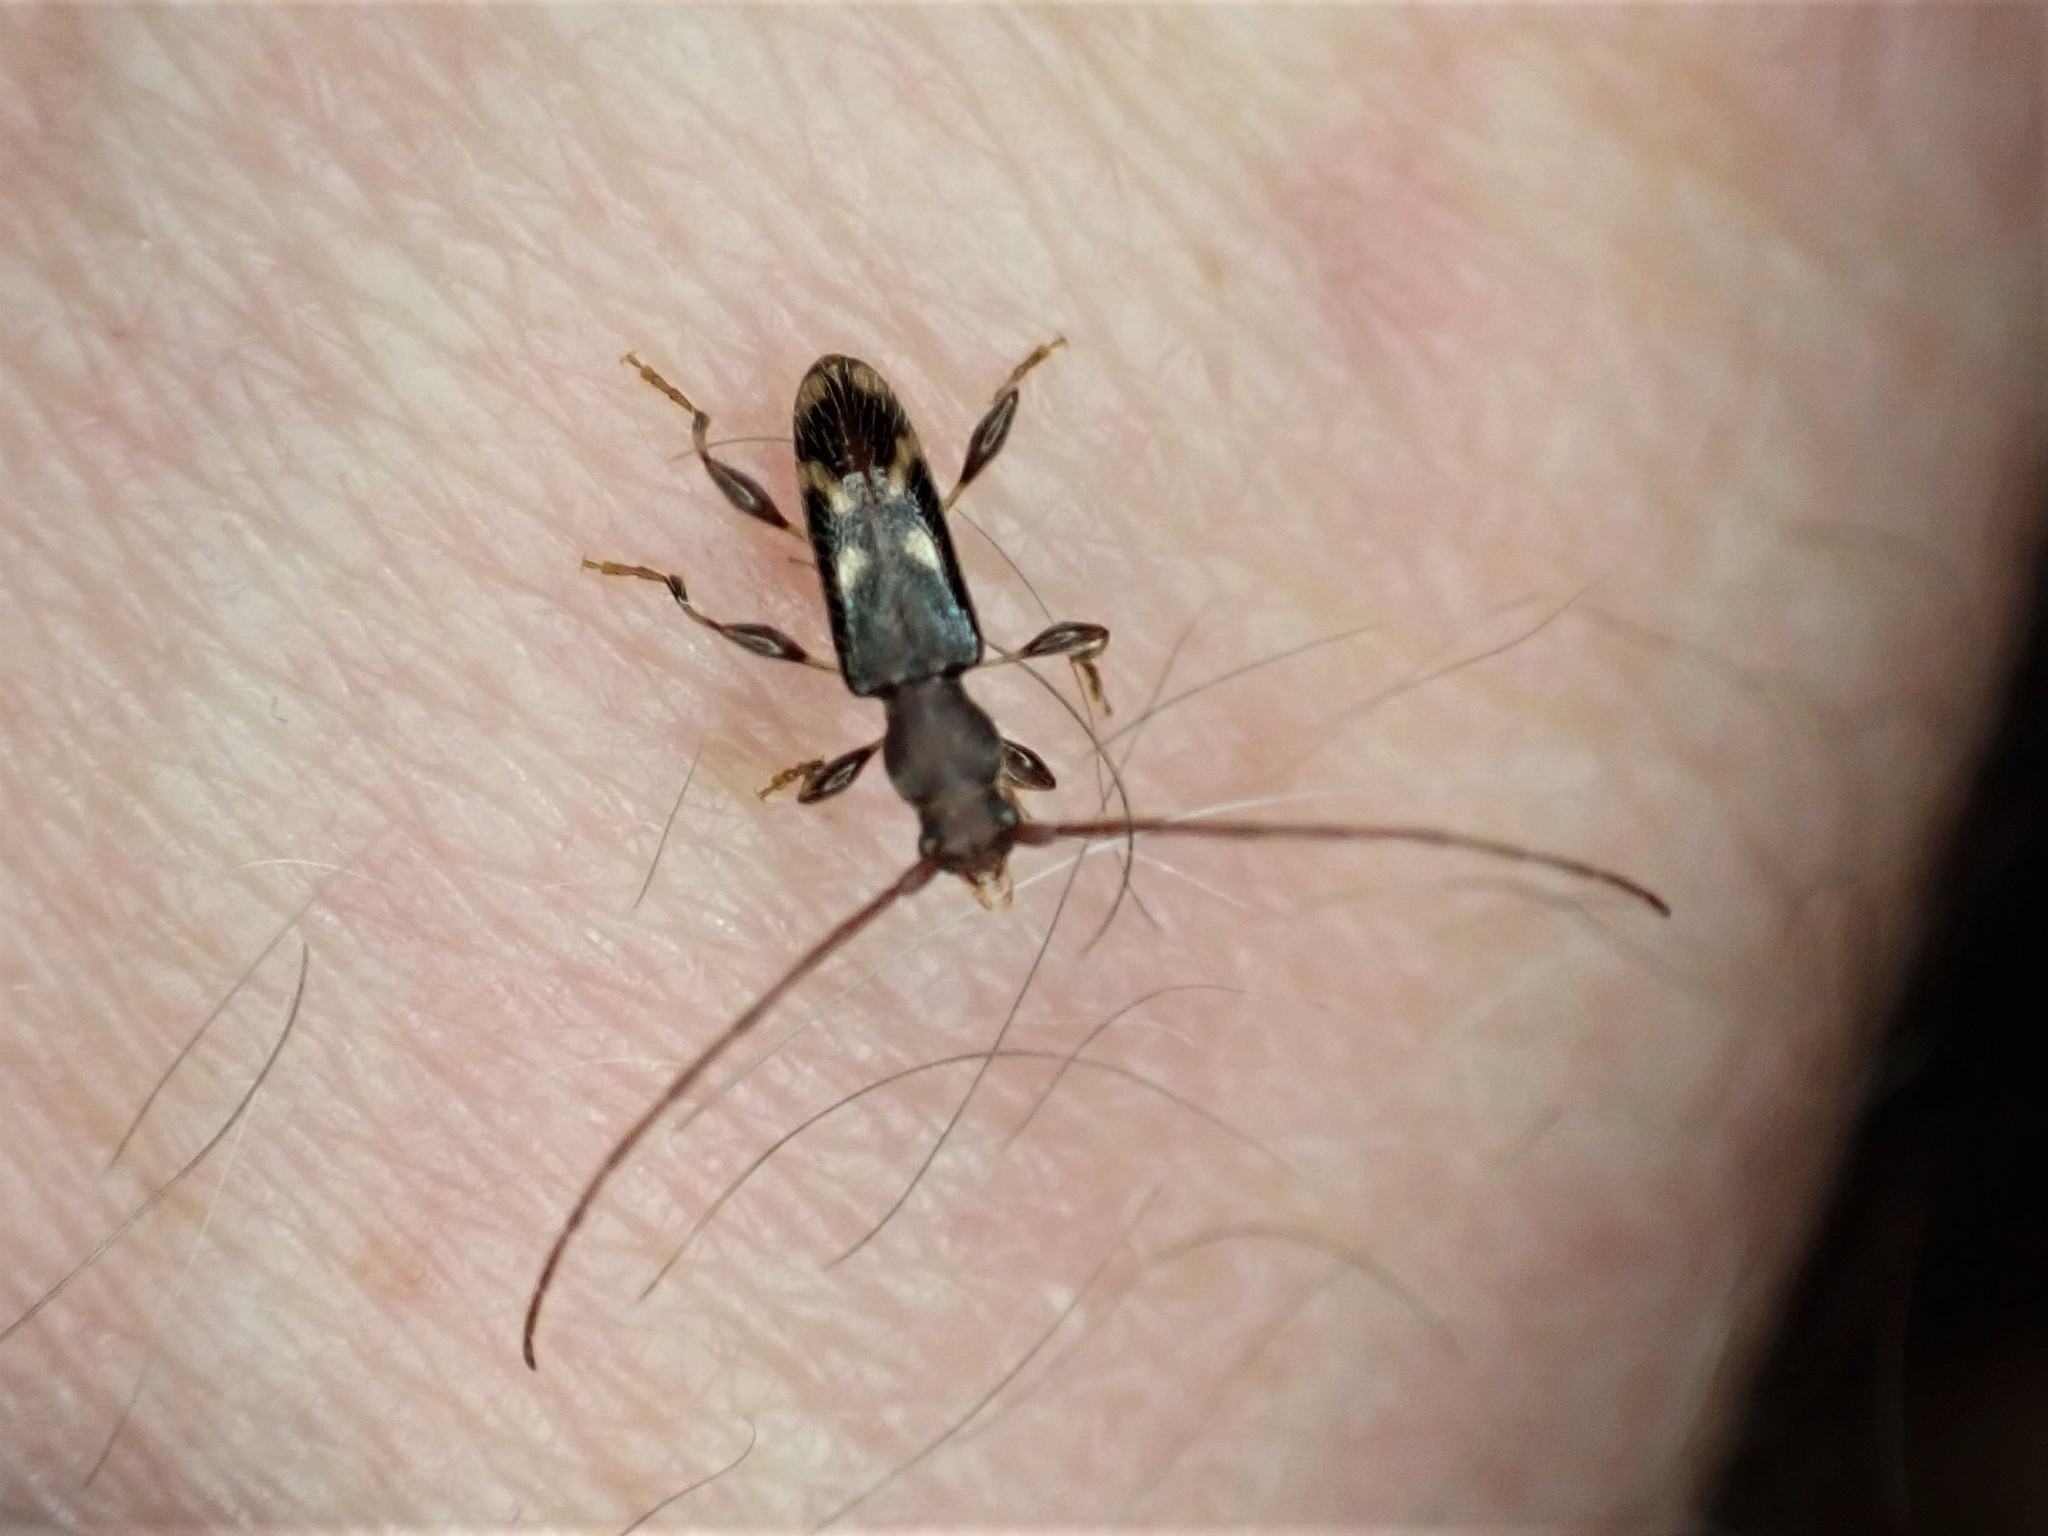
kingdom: Animalia
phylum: Arthropoda
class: Insecta
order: Coleoptera
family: Cerambycidae
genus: Bethelium
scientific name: Bethelium signiferum
